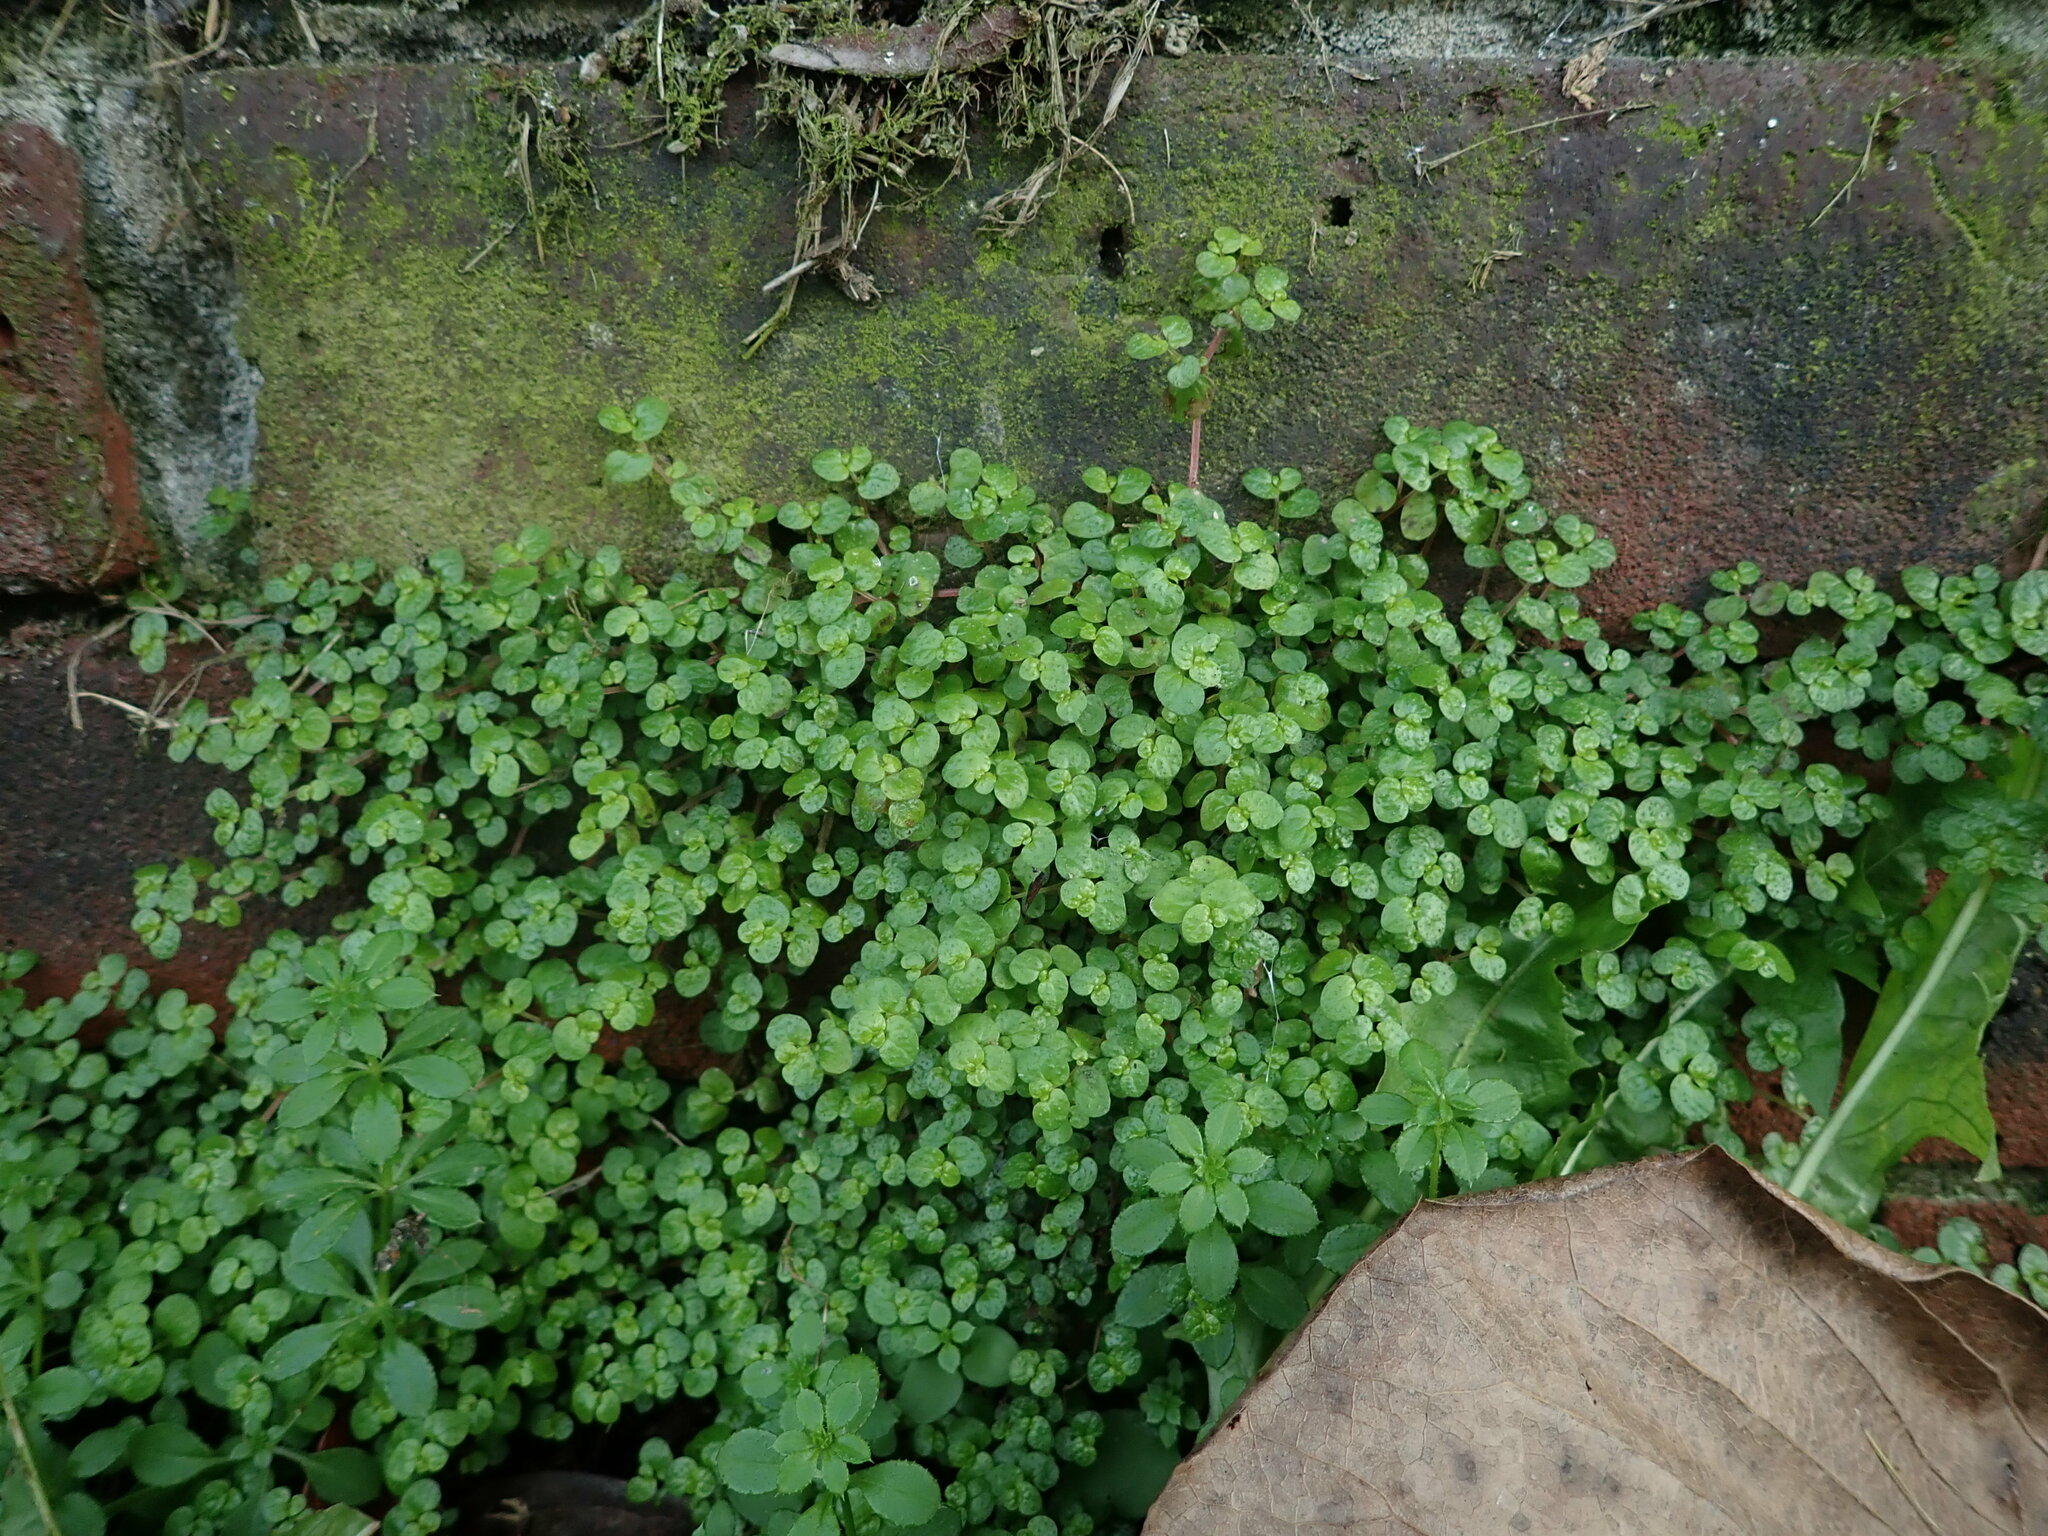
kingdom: Plantae
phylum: Tracheophyta
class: Magnoliopsida
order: Rosales
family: Urticaceae
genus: Soleirolia
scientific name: Soleirolia soleirolii
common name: Mind-your-own-business
